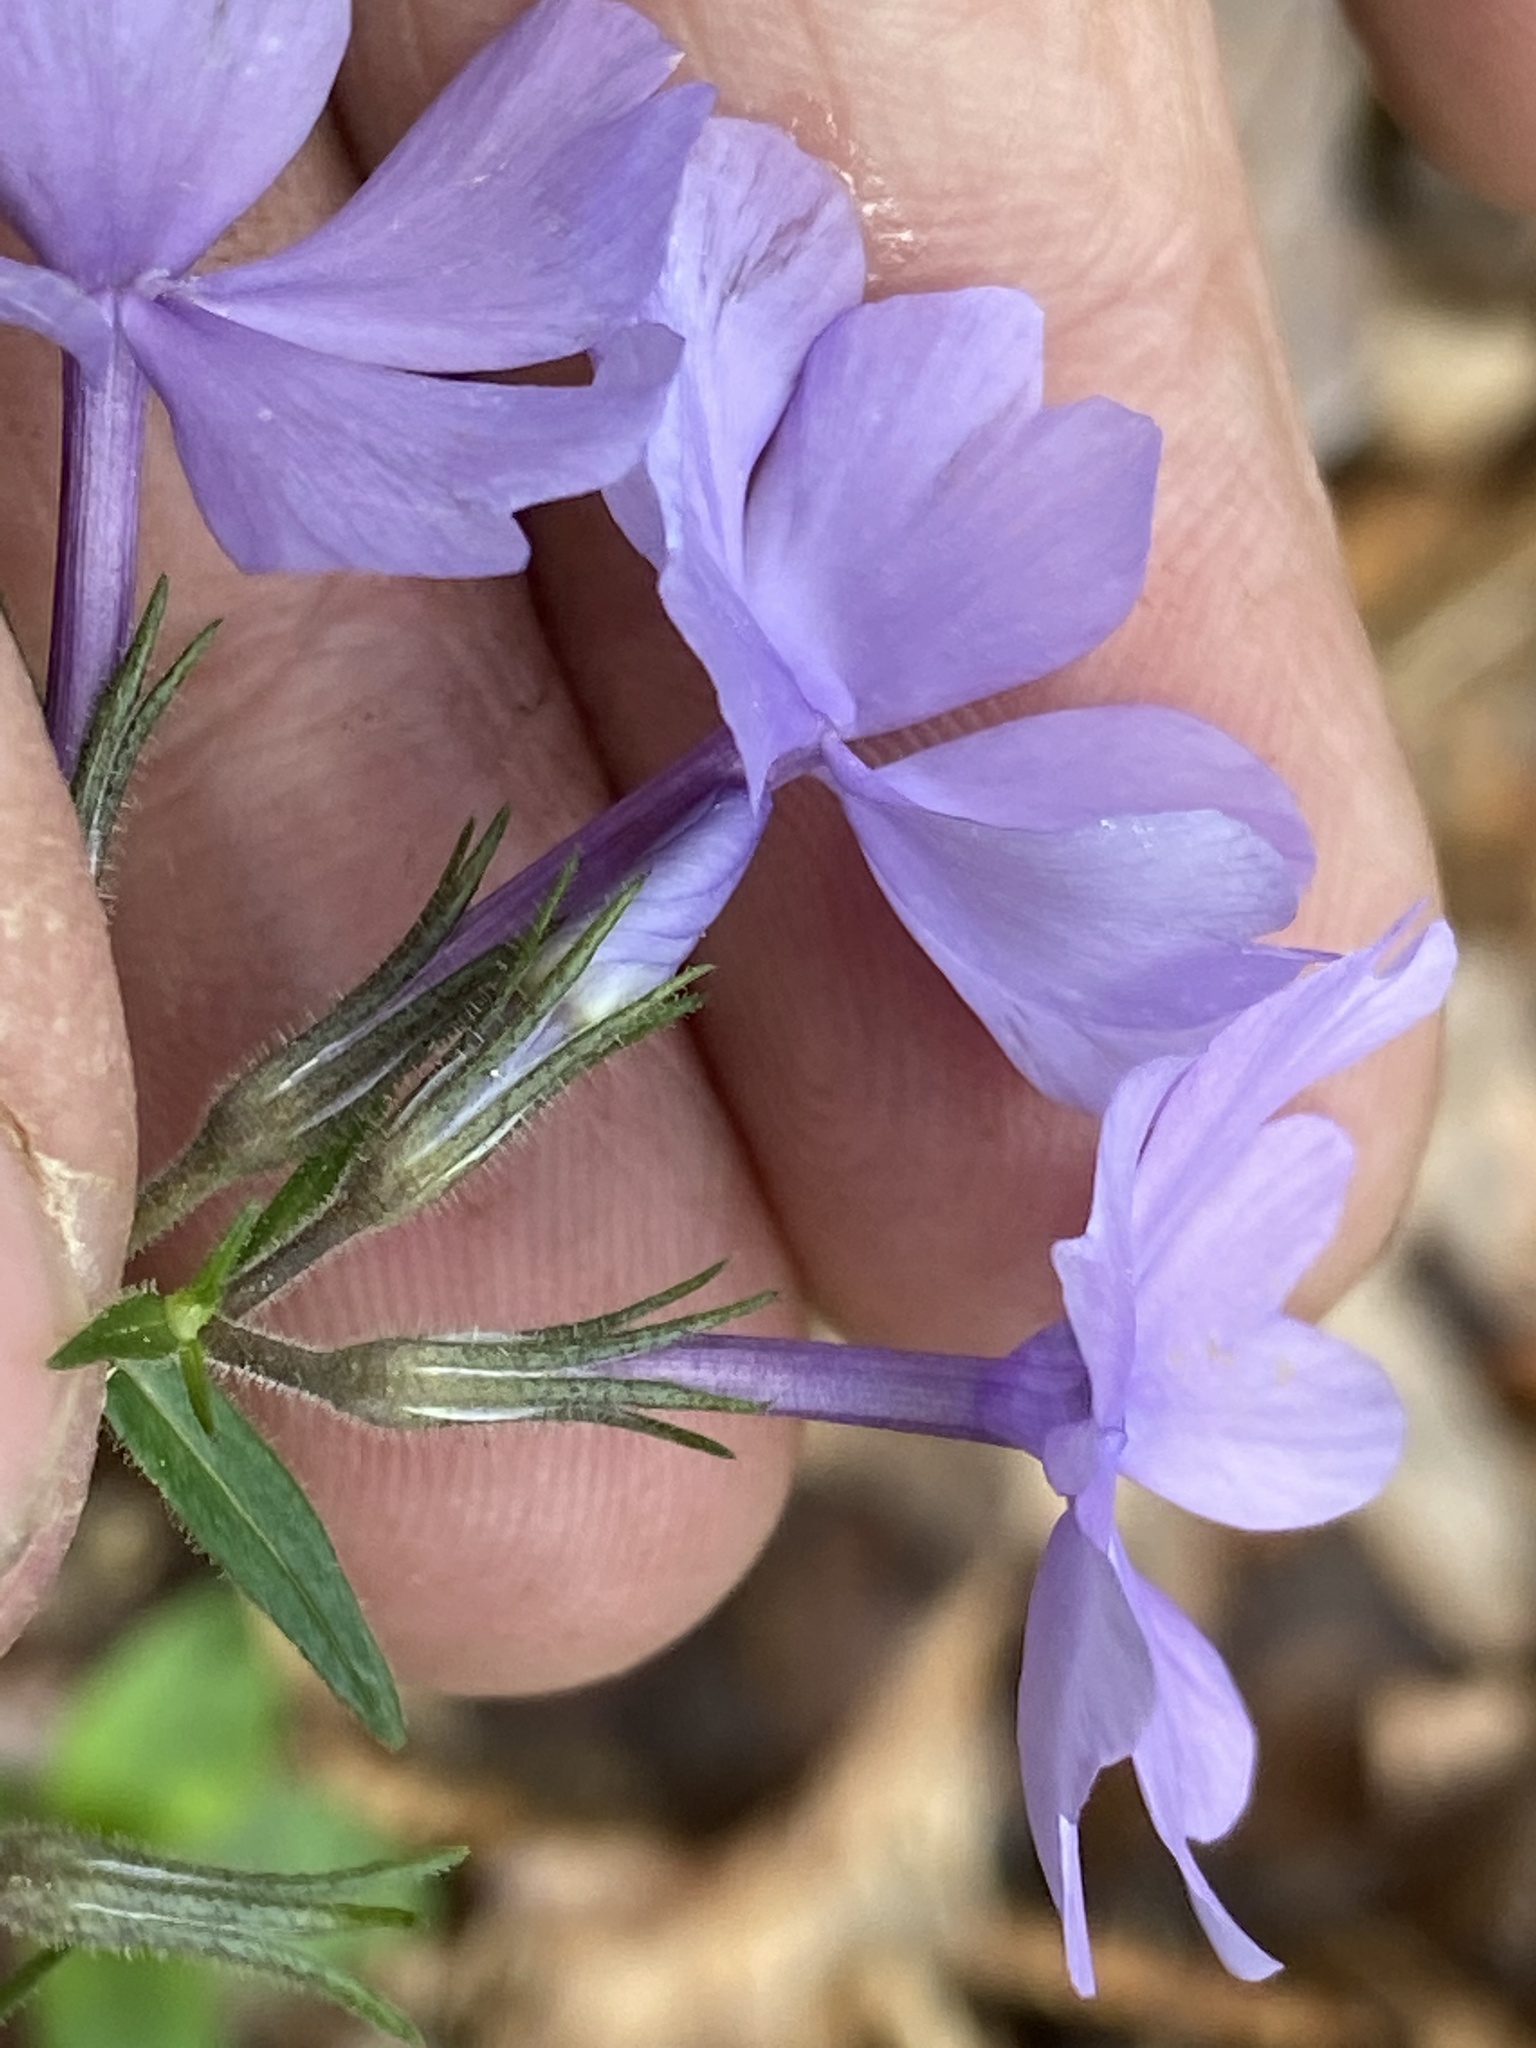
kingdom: Plantae
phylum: Tracheophyta
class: Magnoliopsida
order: Ericales
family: Polemoniaceae
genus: Phlox
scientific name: Phlox divaricata
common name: Blue phlox
